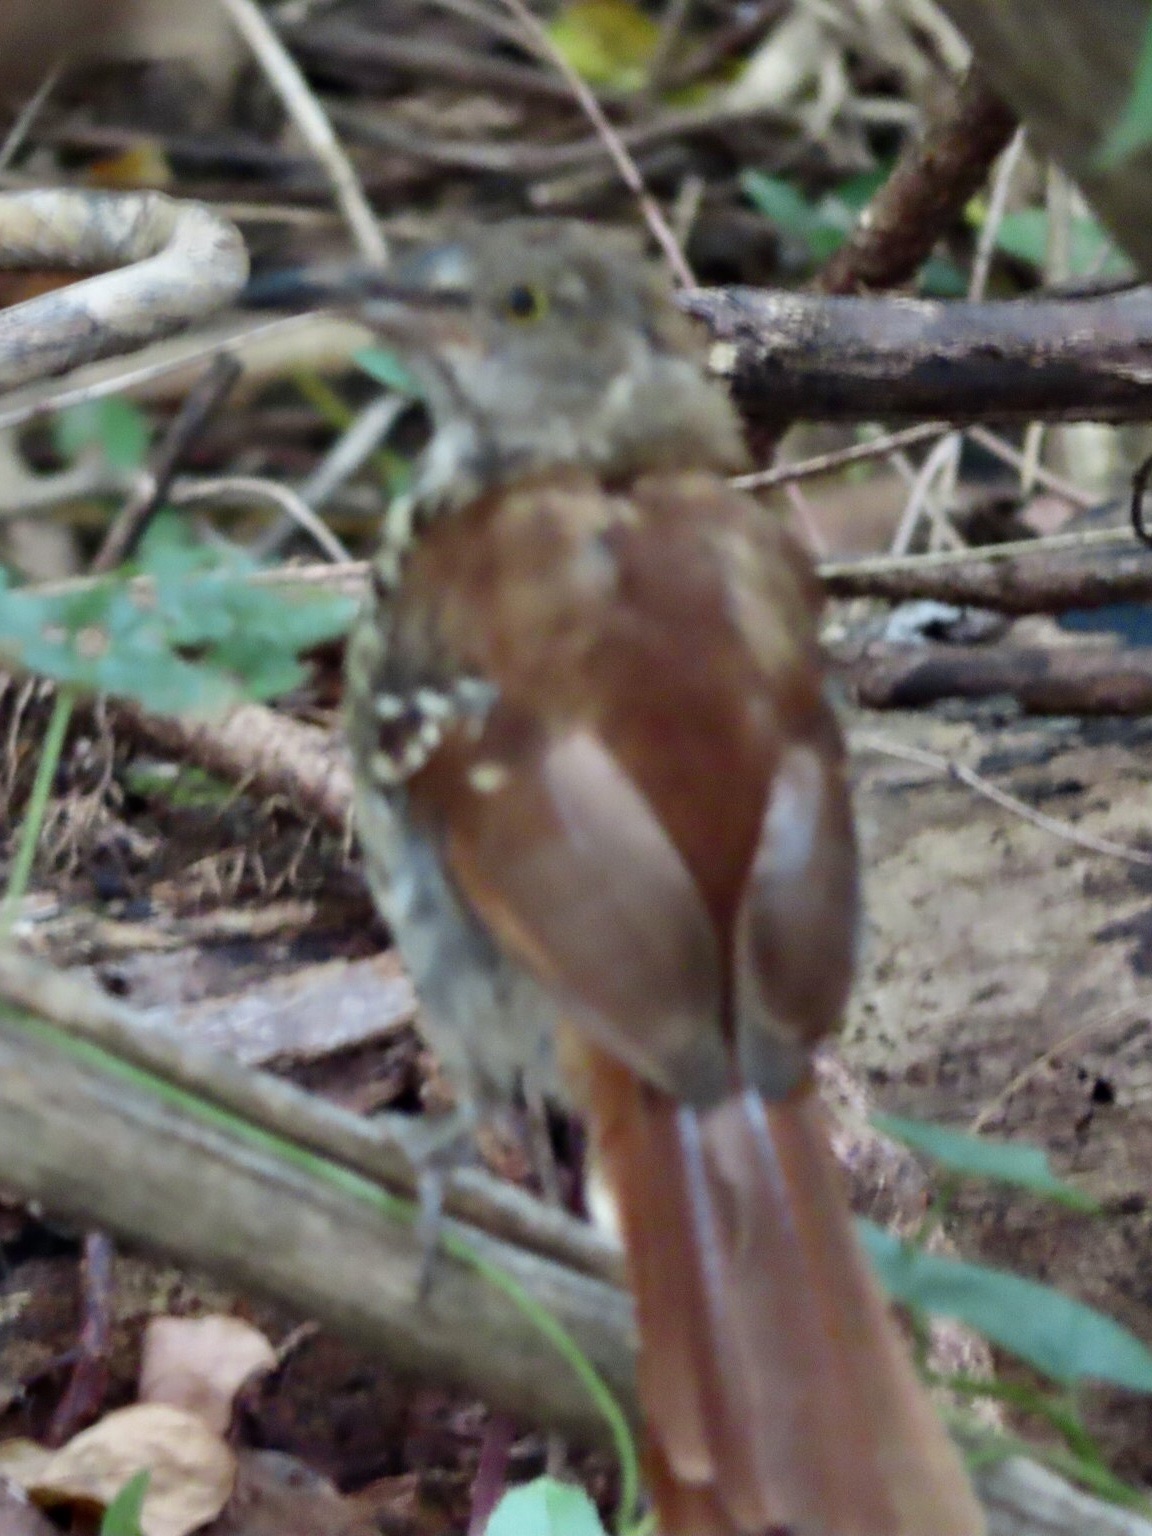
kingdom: Animalia
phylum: Chordata
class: Aves
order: Passeriformes
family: Mimidae
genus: Toxostoma
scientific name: Toxostoma rufum
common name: Brown thrasher
